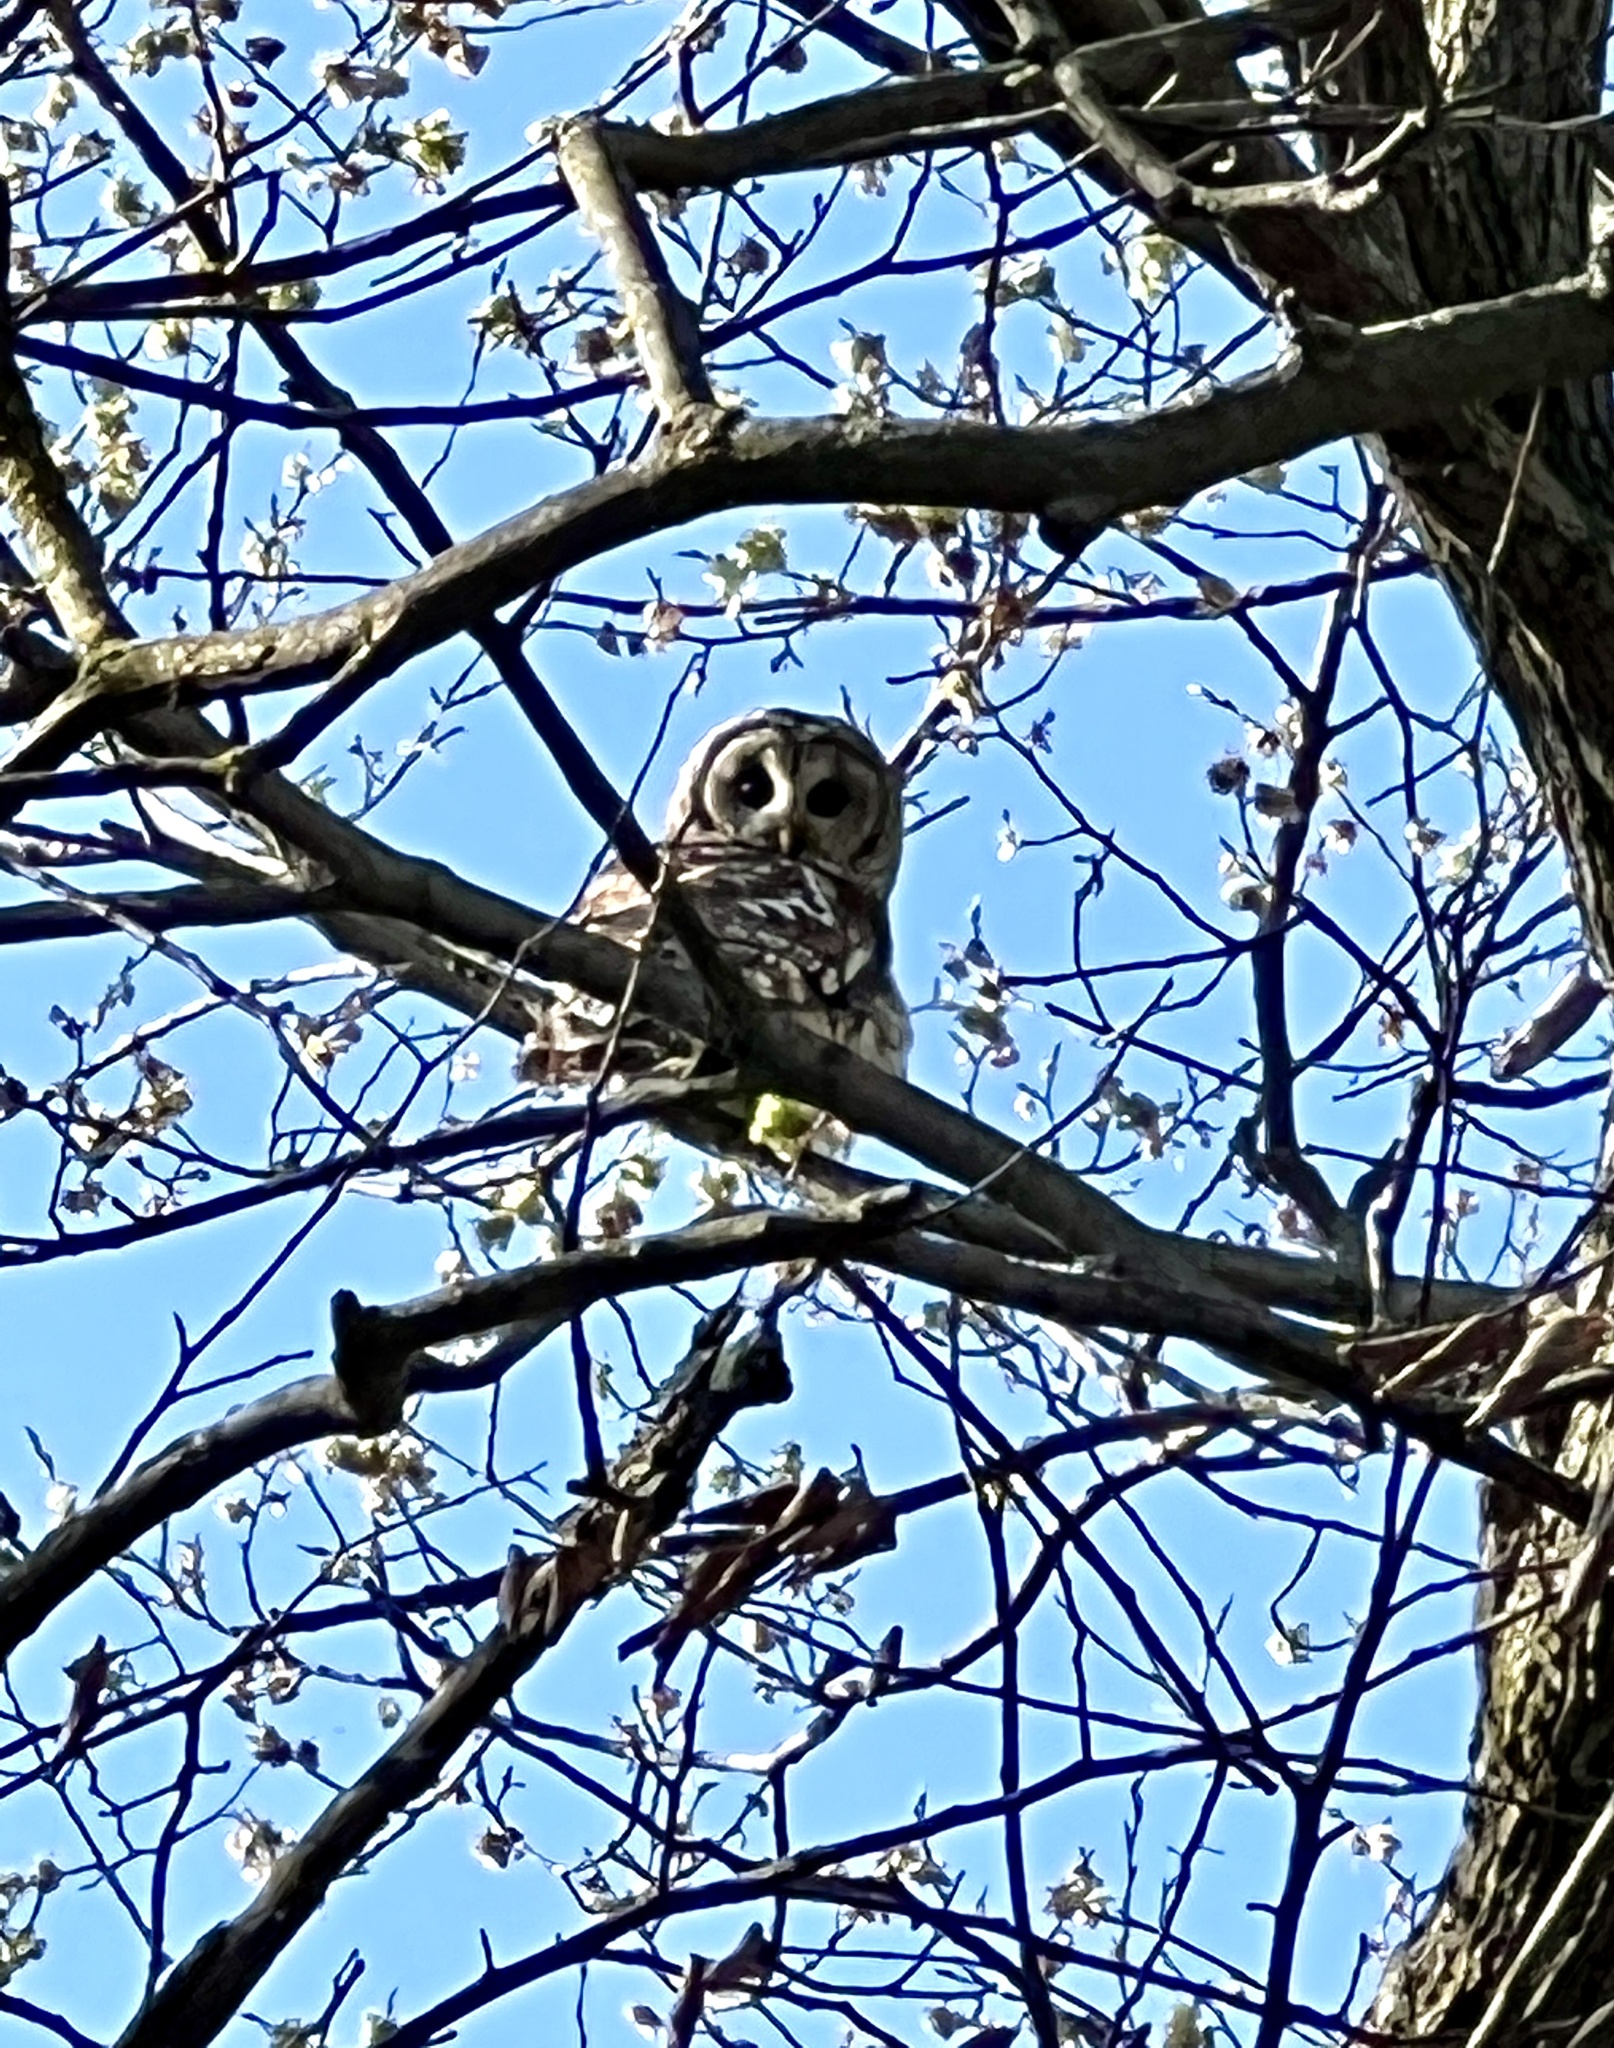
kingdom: Animalia
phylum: Chordata
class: Aves
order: Strigiformes
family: Strigidae
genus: Strix
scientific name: Strix varia
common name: Barred owl
